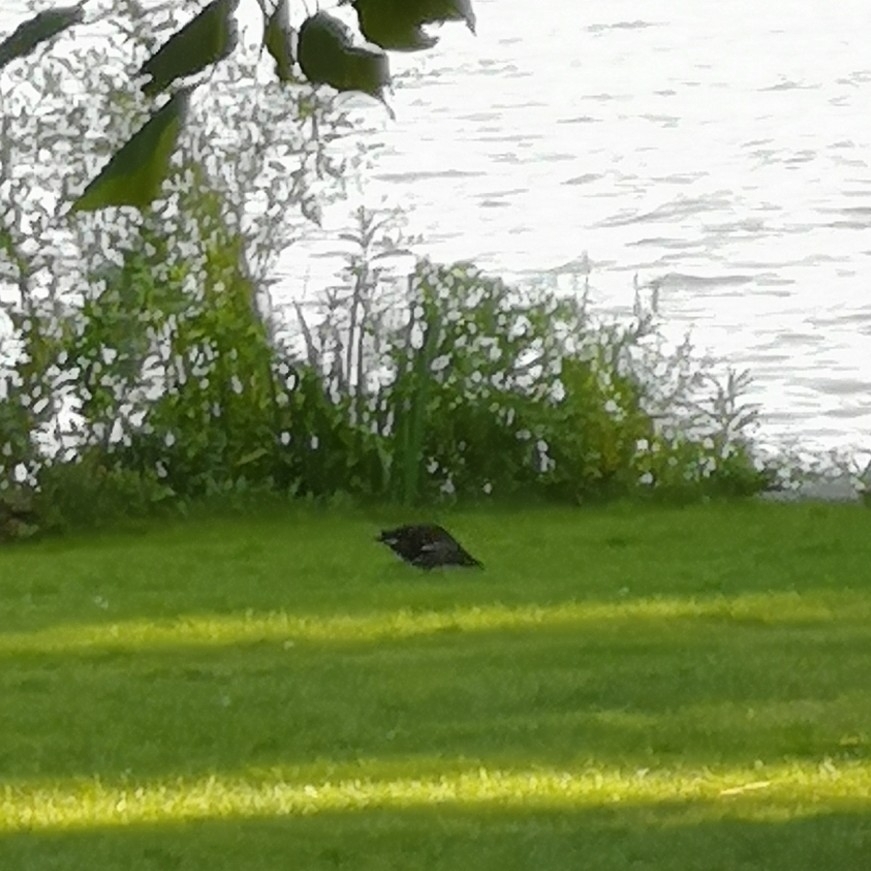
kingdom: Animalia
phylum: Chordata
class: Aves
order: Passeriformes
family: Sturnidae
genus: Sturnus
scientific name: Sturnus vulgaris
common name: Common starling
